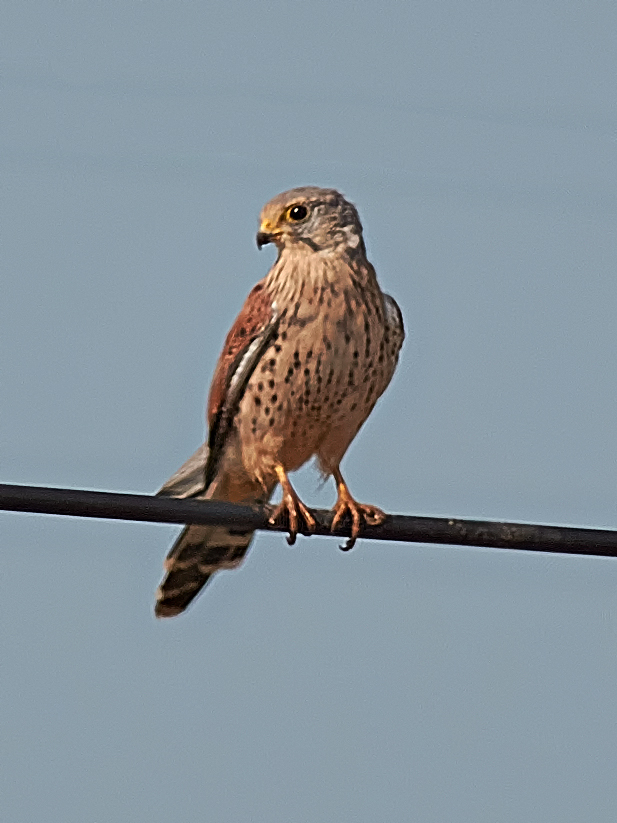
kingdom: Animalia
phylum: Chordata
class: Aves
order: Falconiformes
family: Falconidae
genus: Falco
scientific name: Falco tinnunculus
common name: Common kestrel
